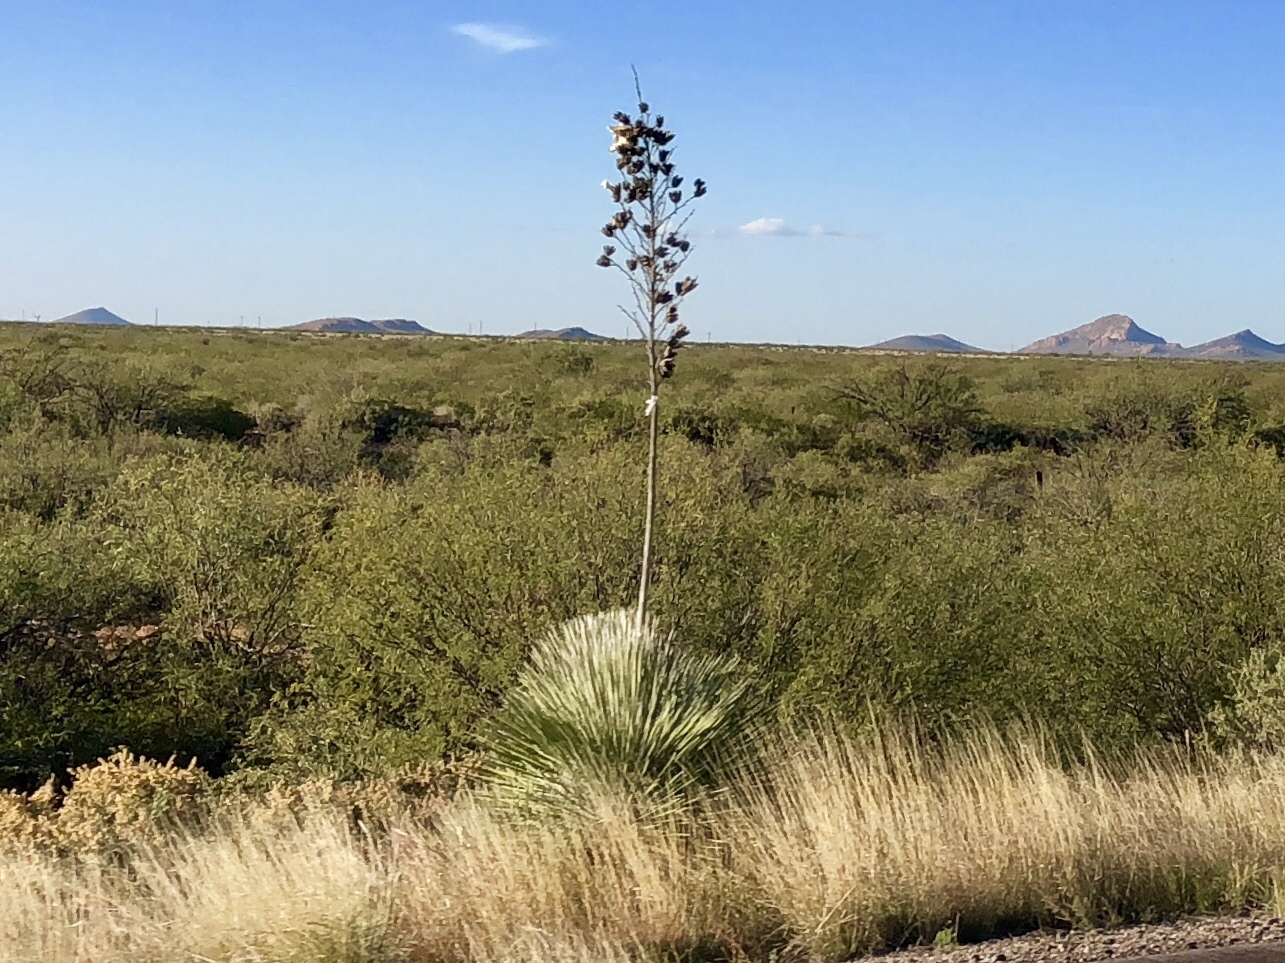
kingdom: Plantae
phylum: Tracheophyta
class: Liliopsida
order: Asparagales
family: Asparagaceae
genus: Yucca
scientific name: Yucca elata
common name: Palmella
